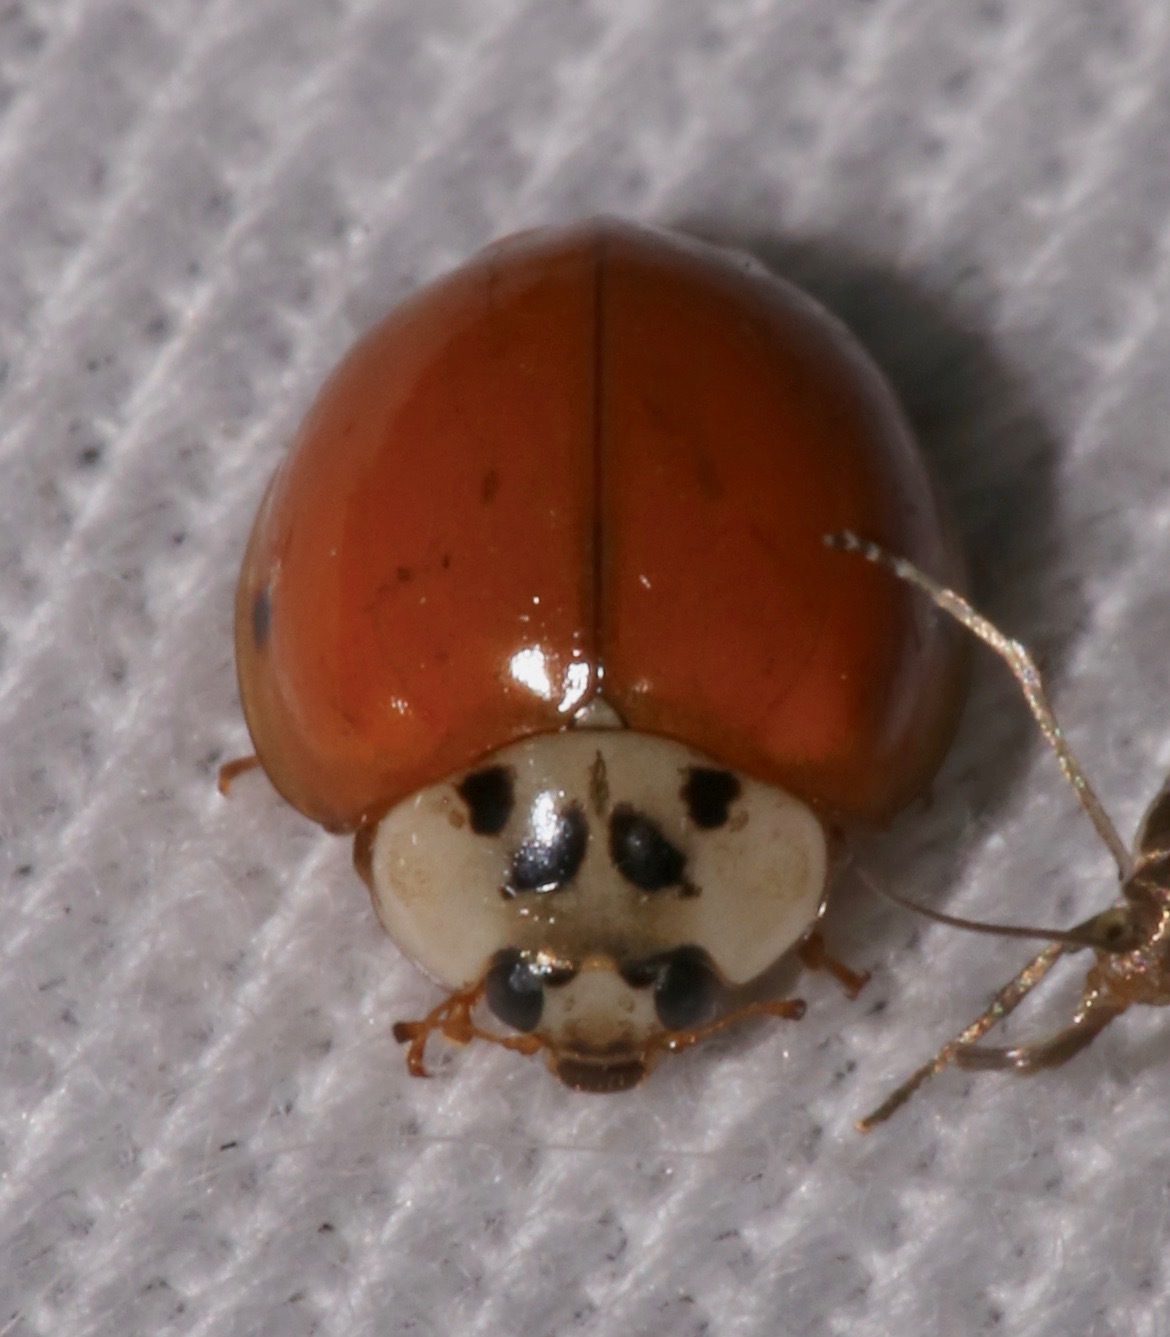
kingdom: Animalia
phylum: Arthropoda
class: Insecta
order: Coleoptera
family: Coccinellidae
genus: Harmonia
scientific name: Harmonia axyridis
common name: Harlequin ladybird
